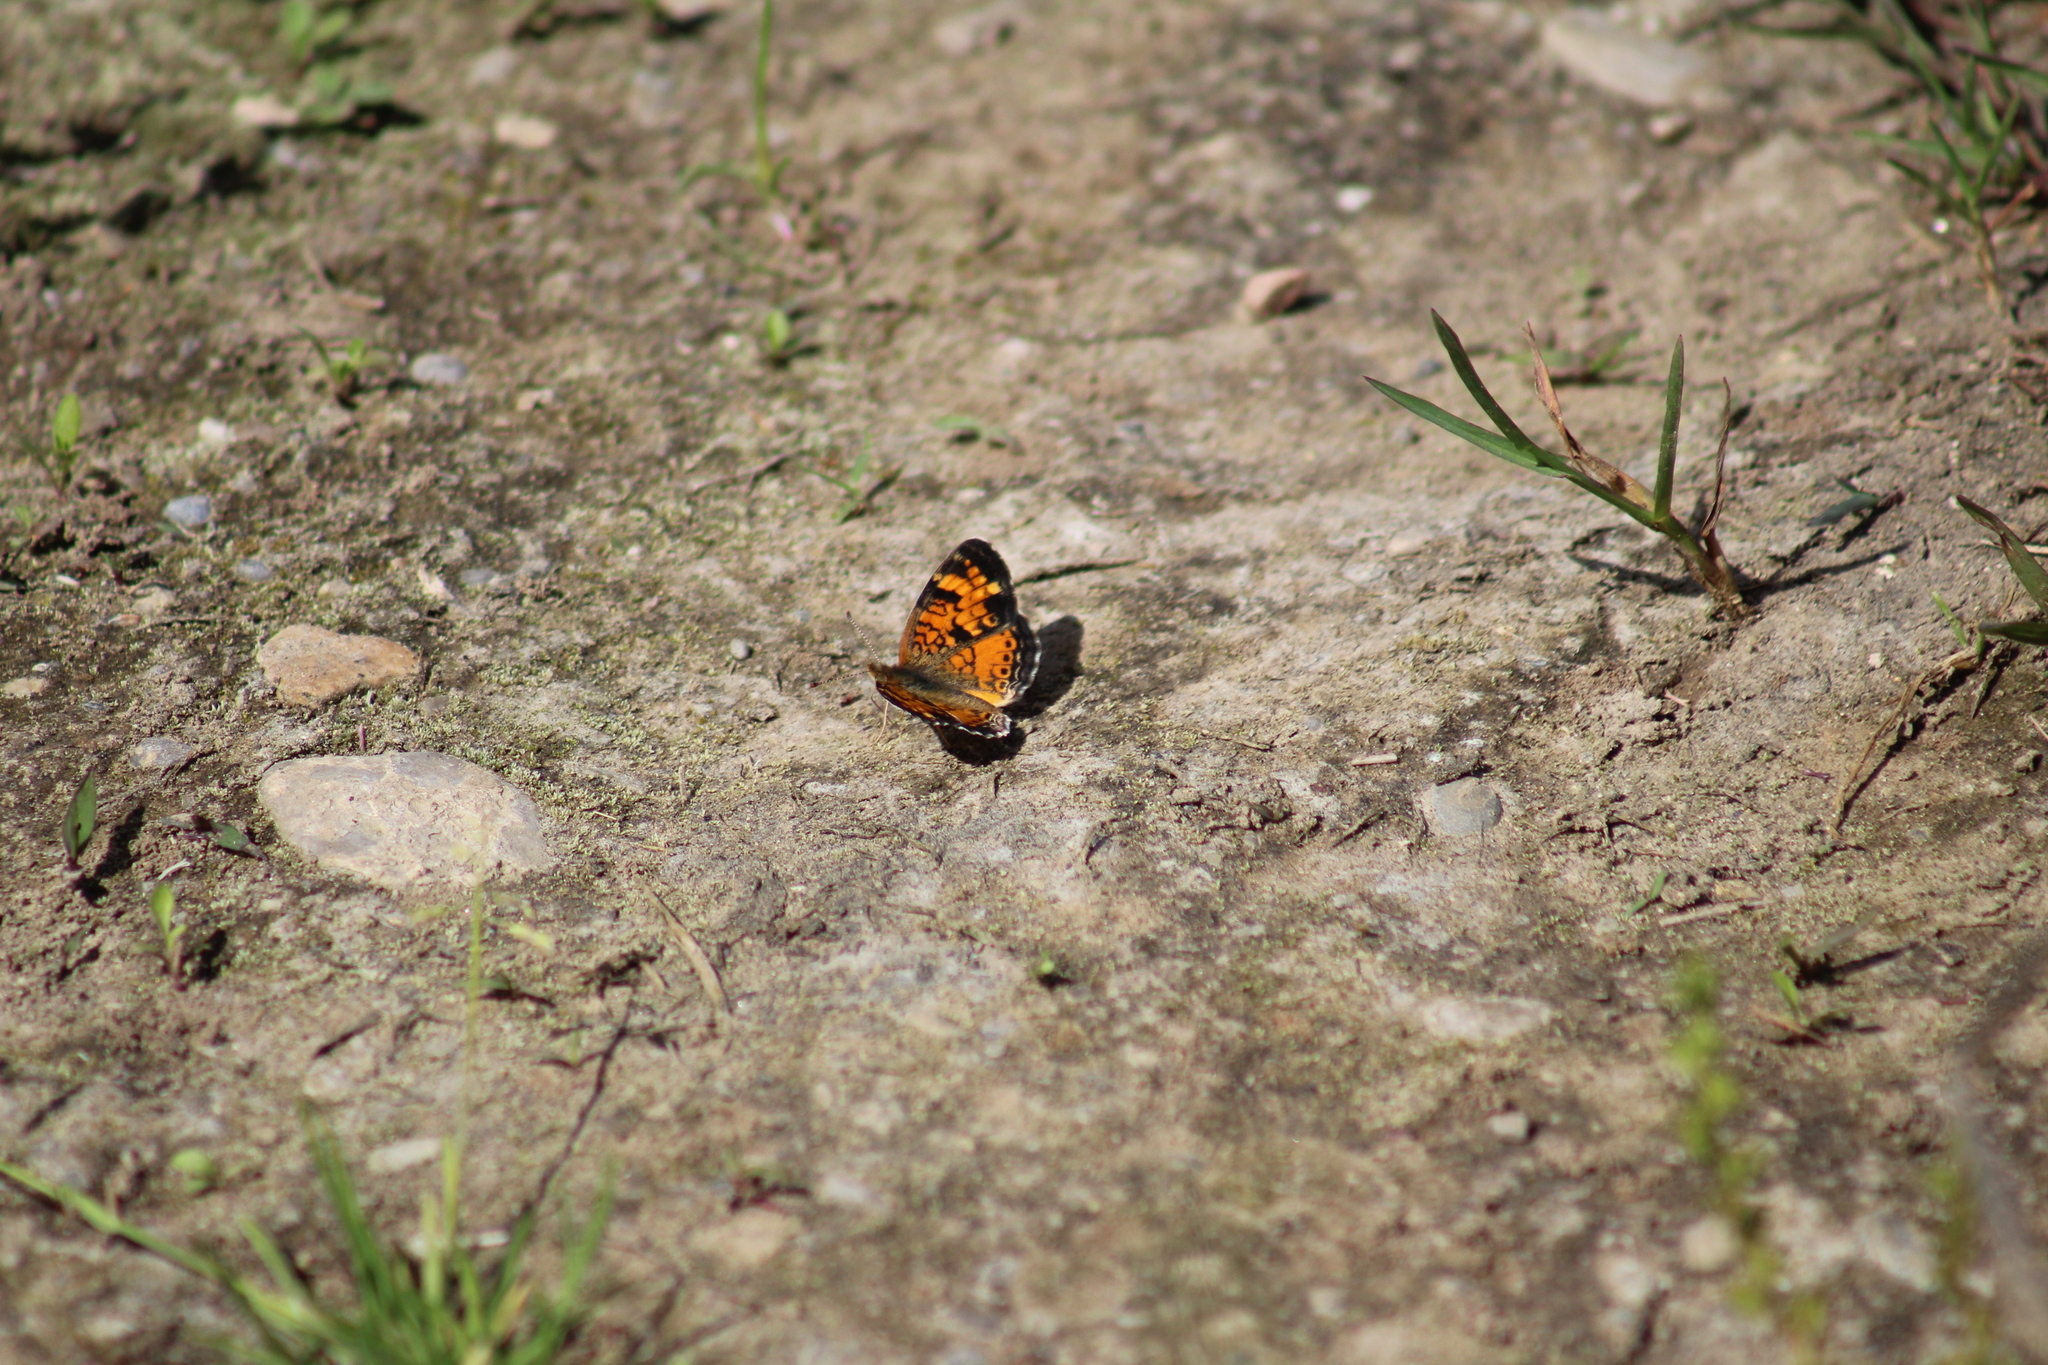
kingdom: Animalia
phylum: Arthropoda
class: Insecta
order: Lepidoptera
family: Nymphalidae
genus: Phyciodes
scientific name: Phyciodes tharos
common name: Pearl crescent
